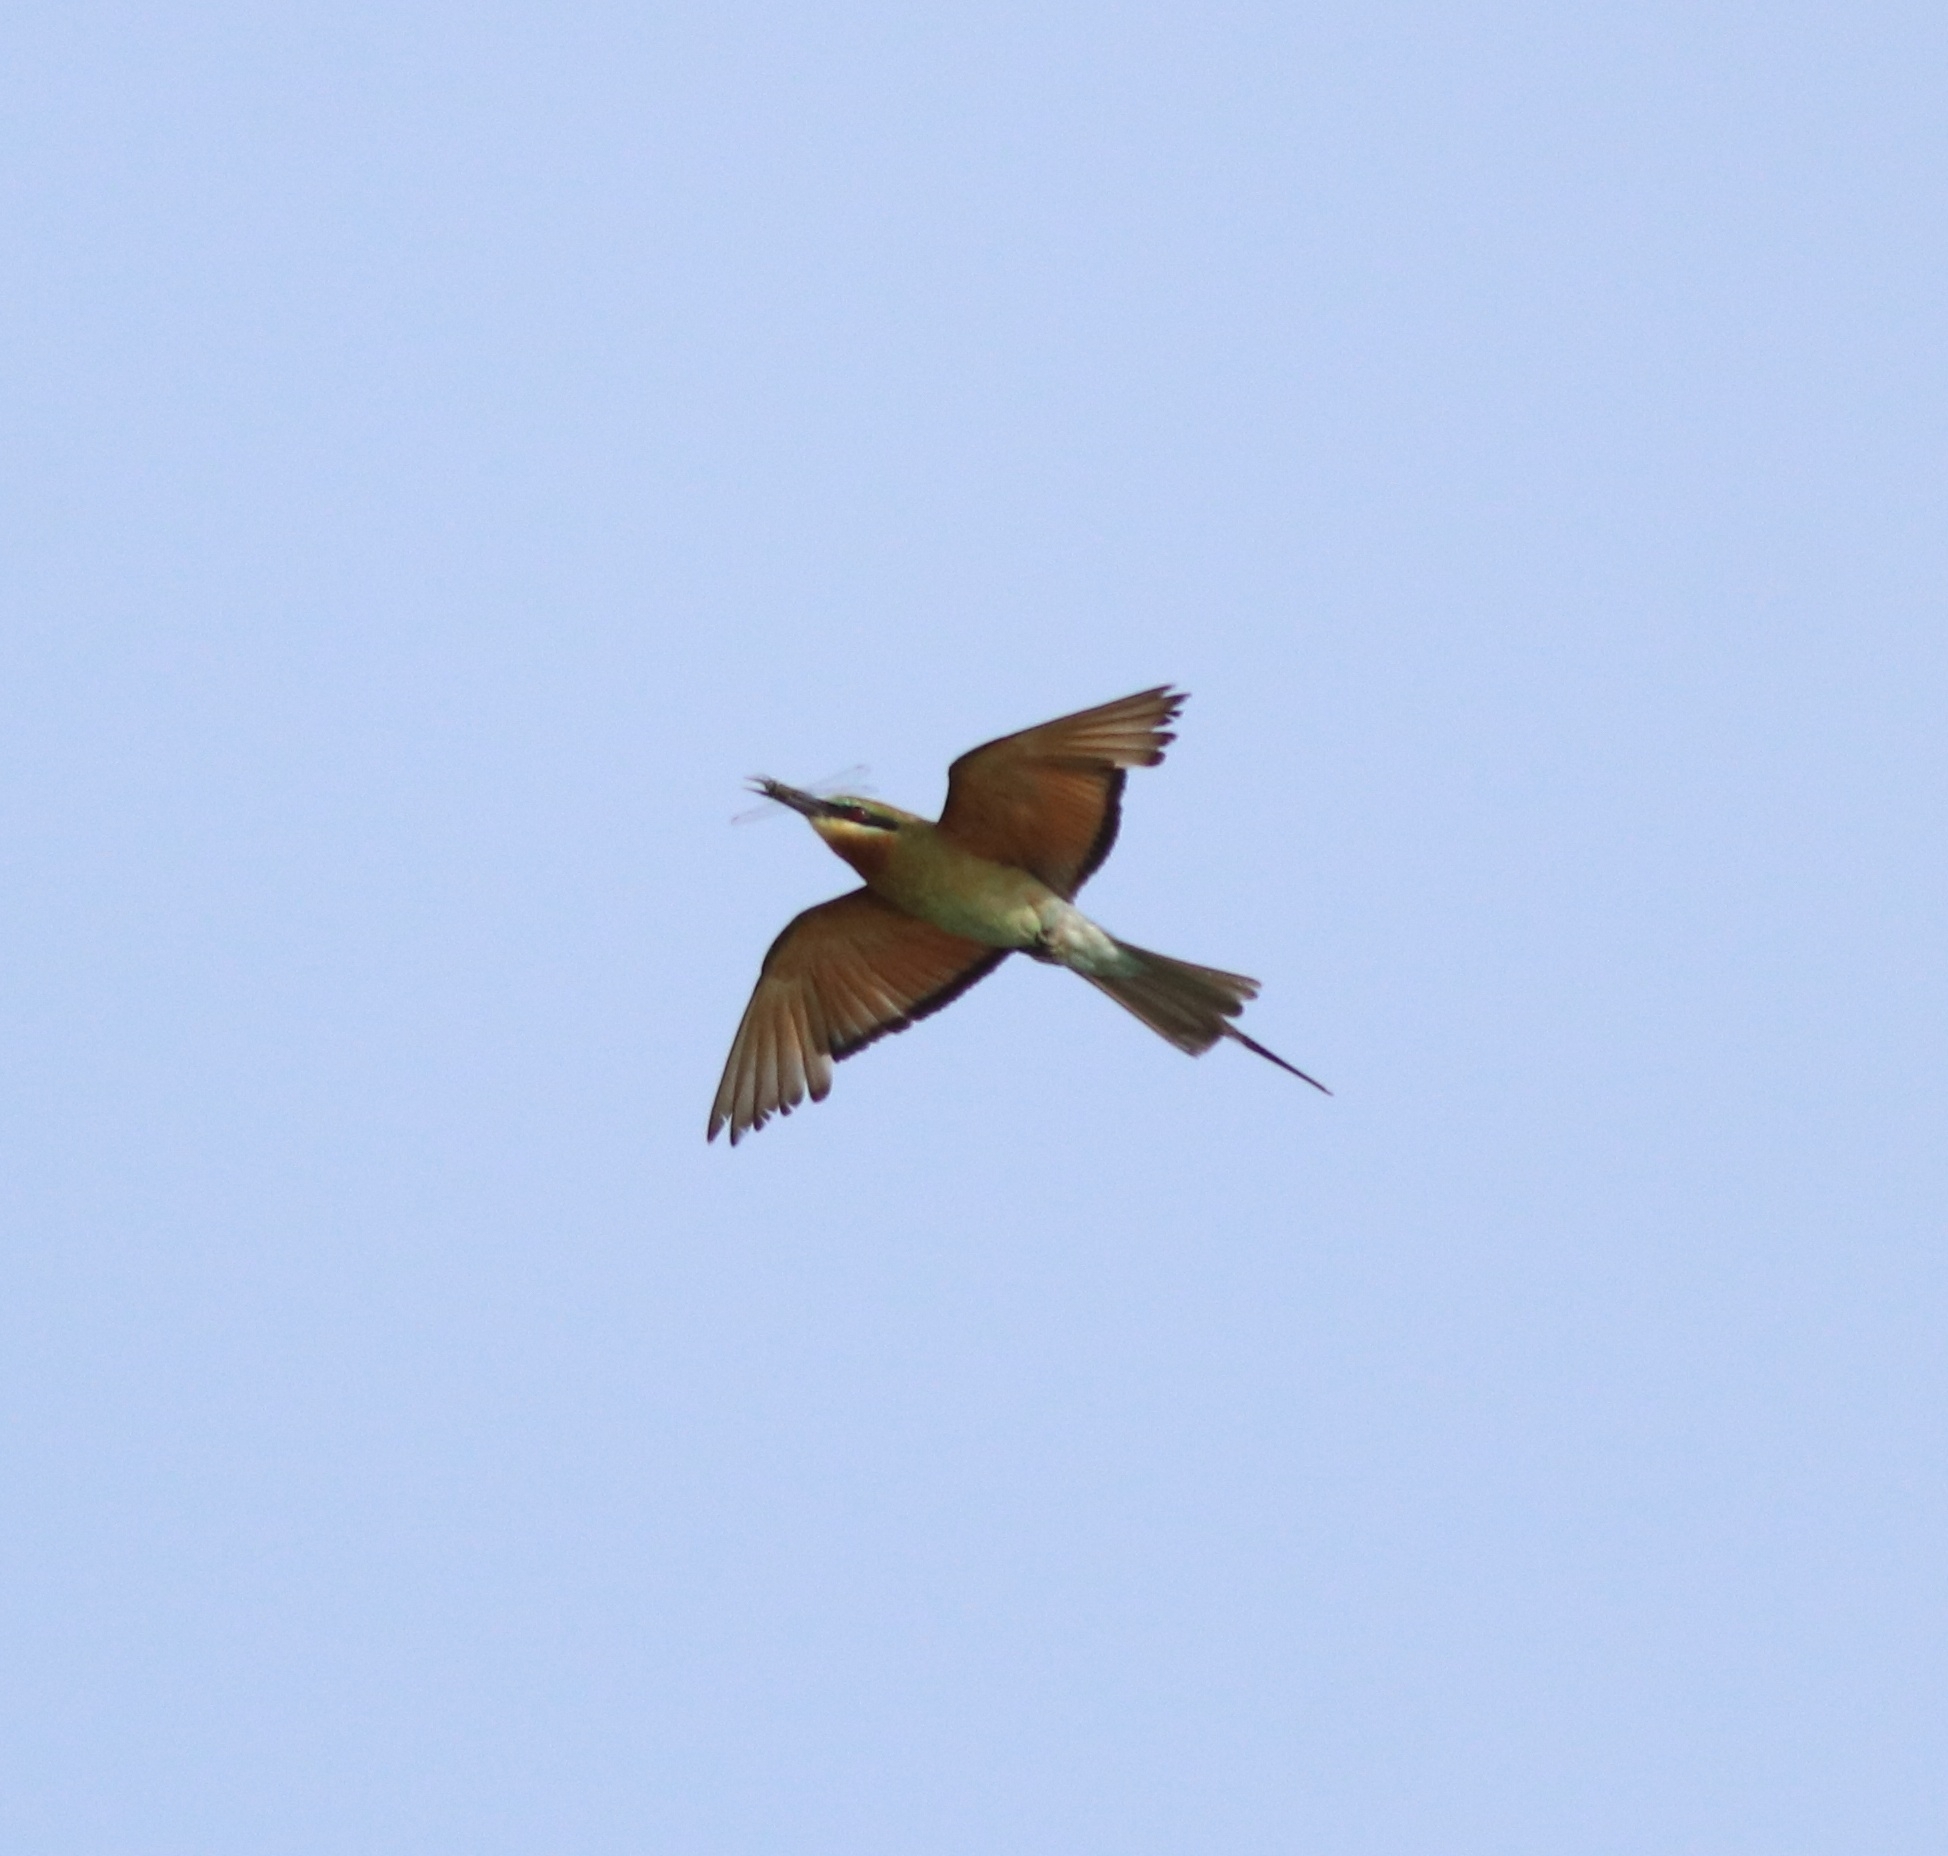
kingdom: Animalia
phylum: Chordata
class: Aves
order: Coraciiformes
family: Meropidae
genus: Merops
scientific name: Merops philippinus
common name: Blue-tailed bee-eater
